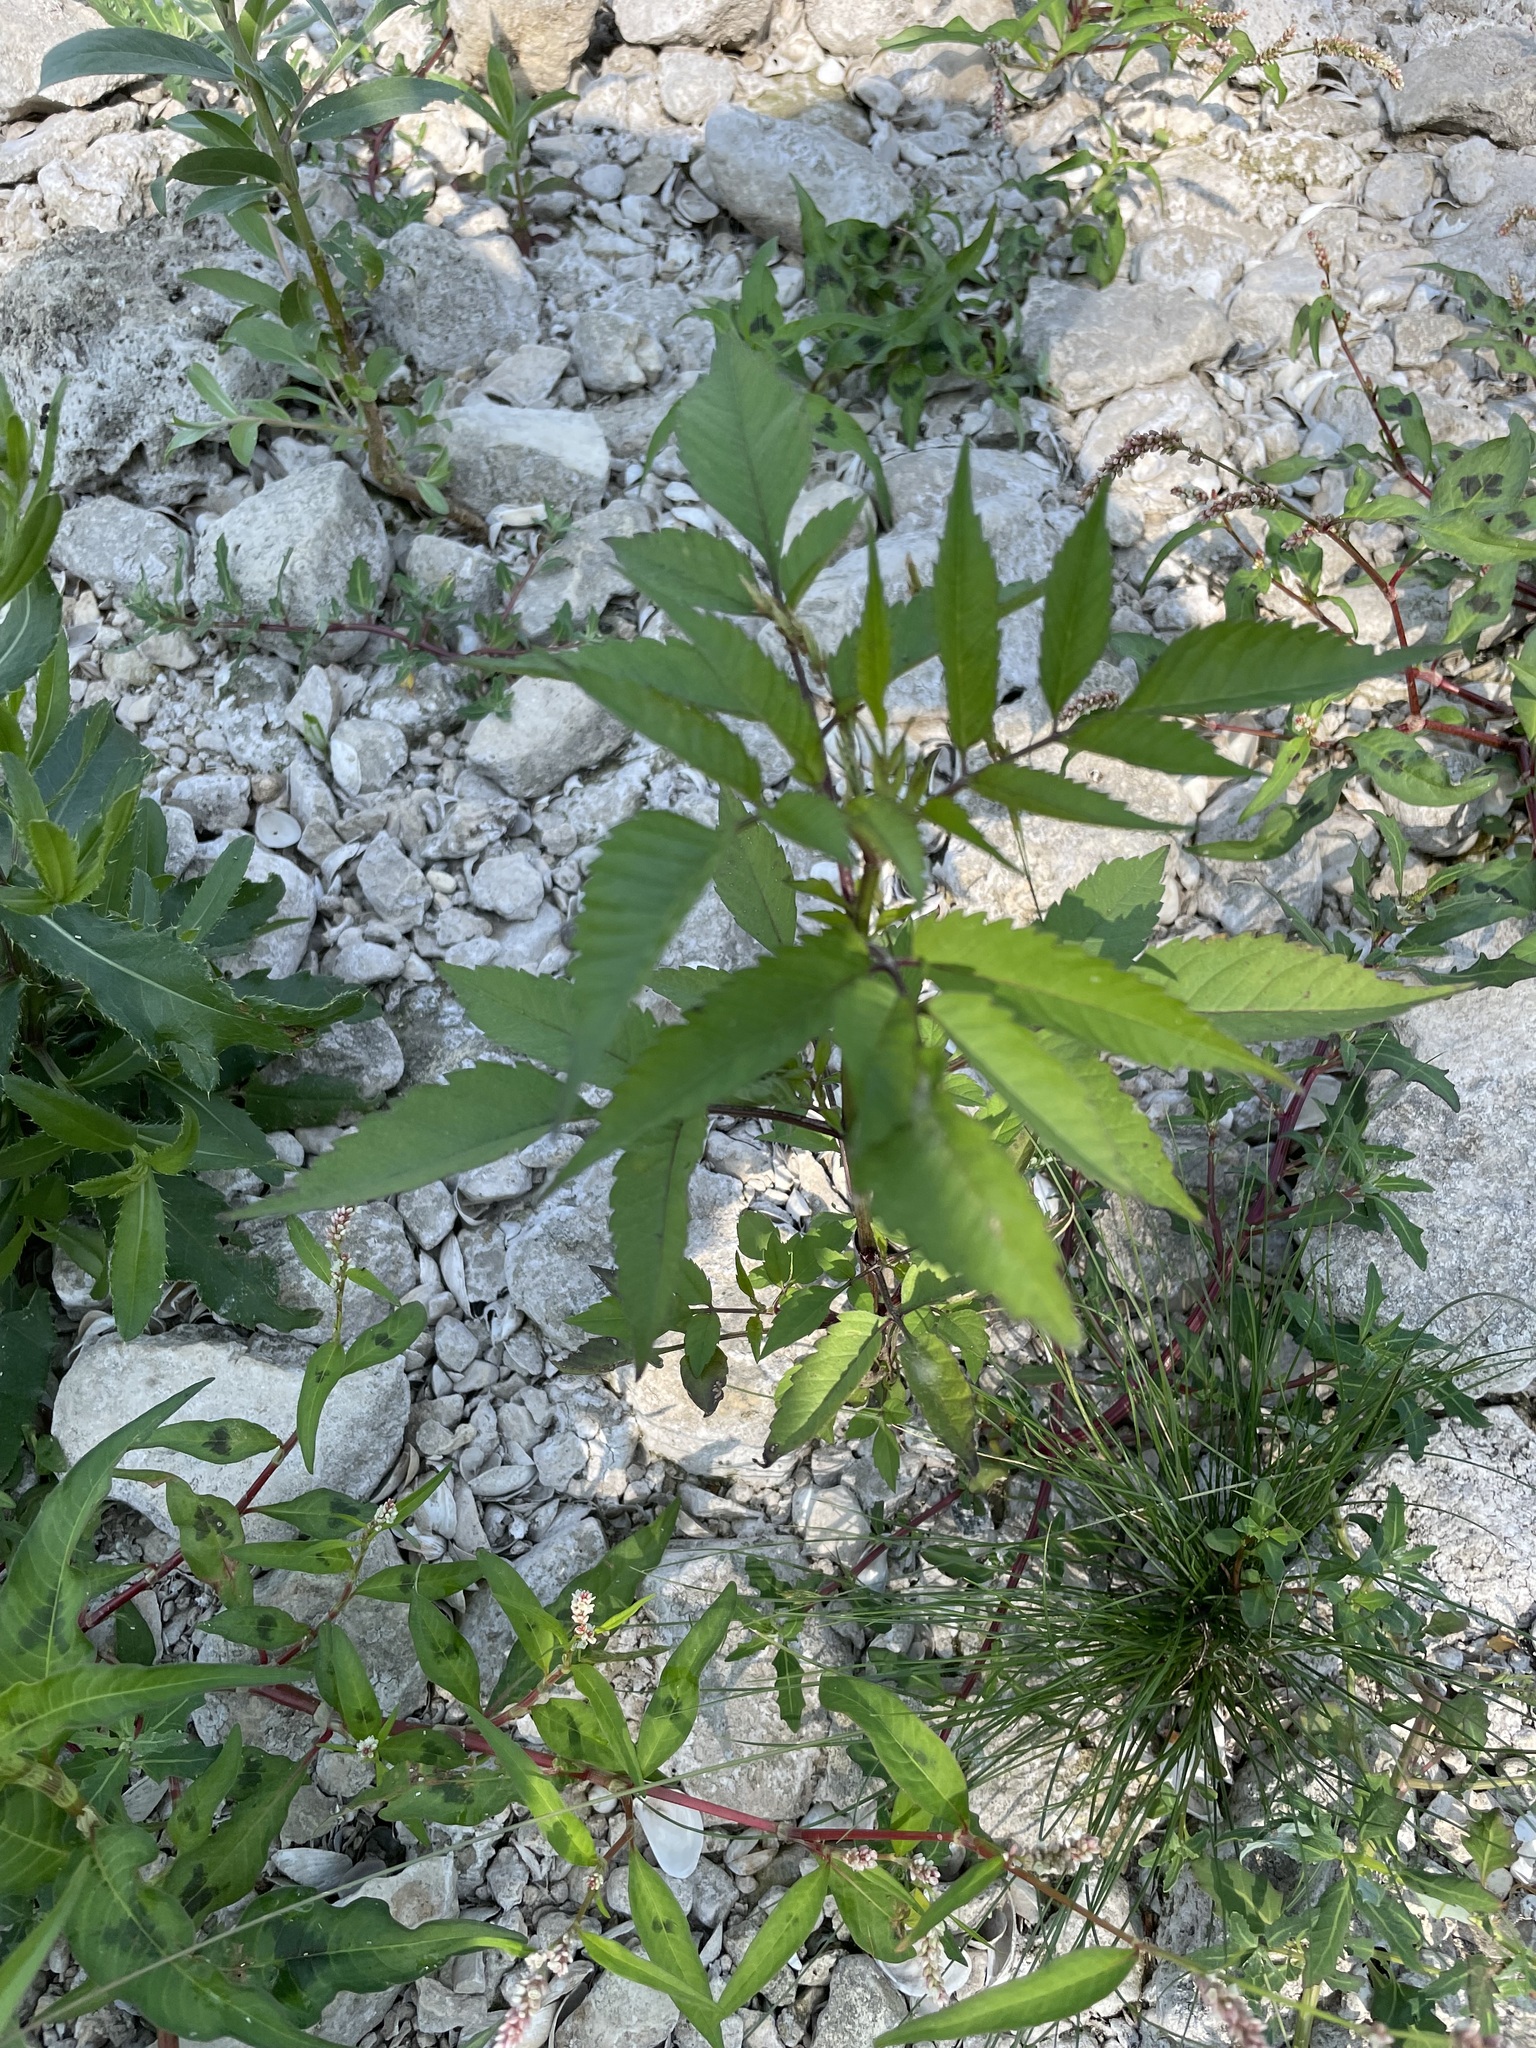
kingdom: Plantae
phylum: Tracheophyta
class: Magnoliopsida
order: Asterales
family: Asteraceae
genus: Bidens
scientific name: Bidens frondosa
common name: Beggarticks
